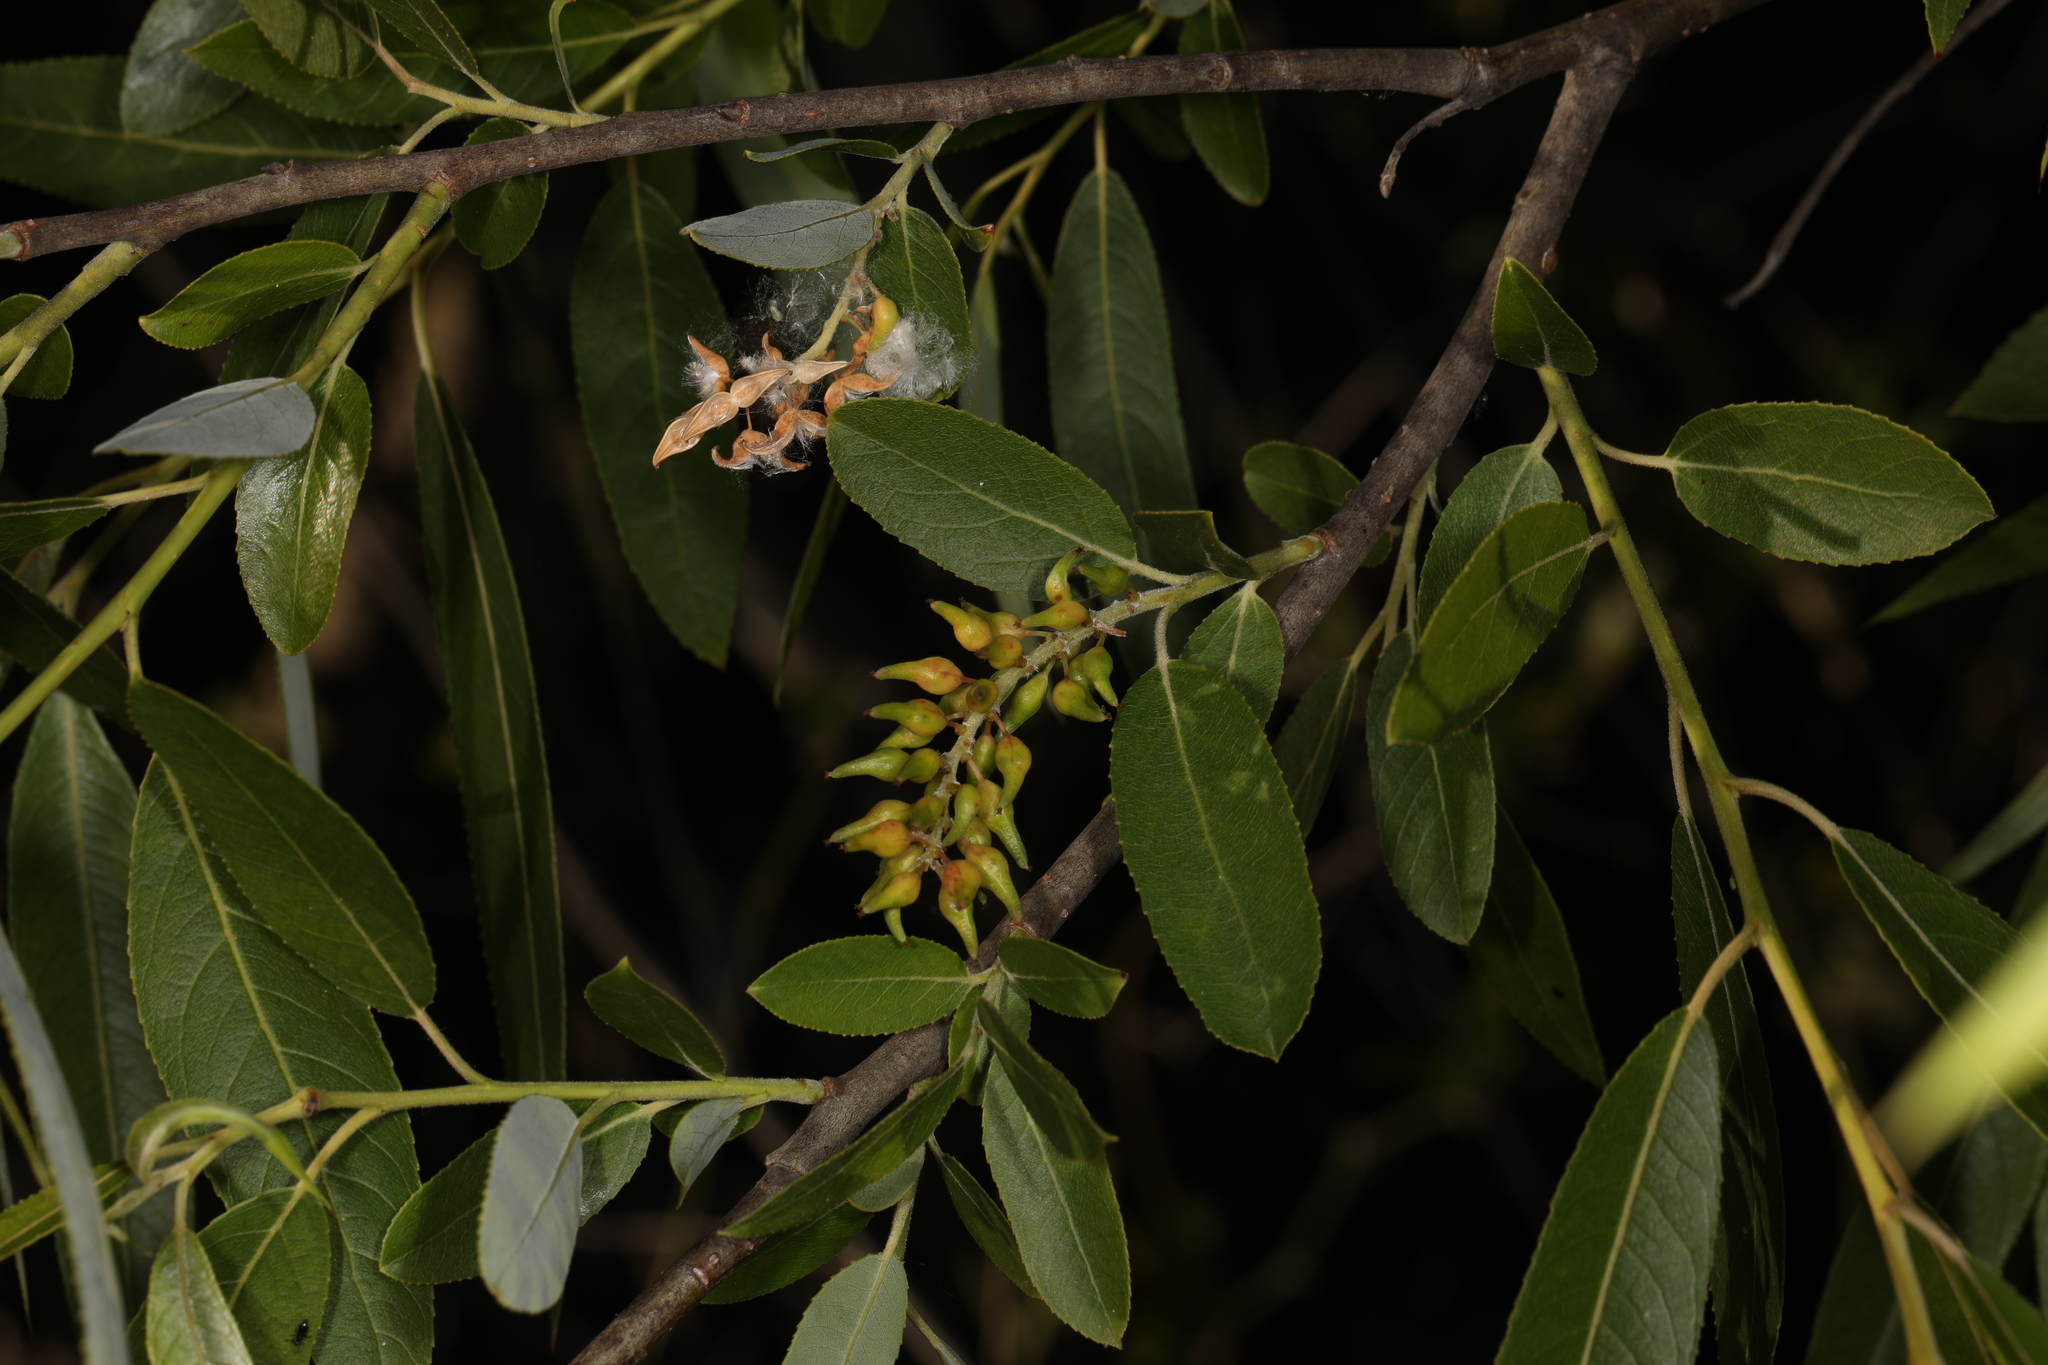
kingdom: Plantae
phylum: Tracheophyta
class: Magnoliopsida
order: Malpighiales
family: Salicaceae
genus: Salix
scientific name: Salix caroliniana
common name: Carolina willow
